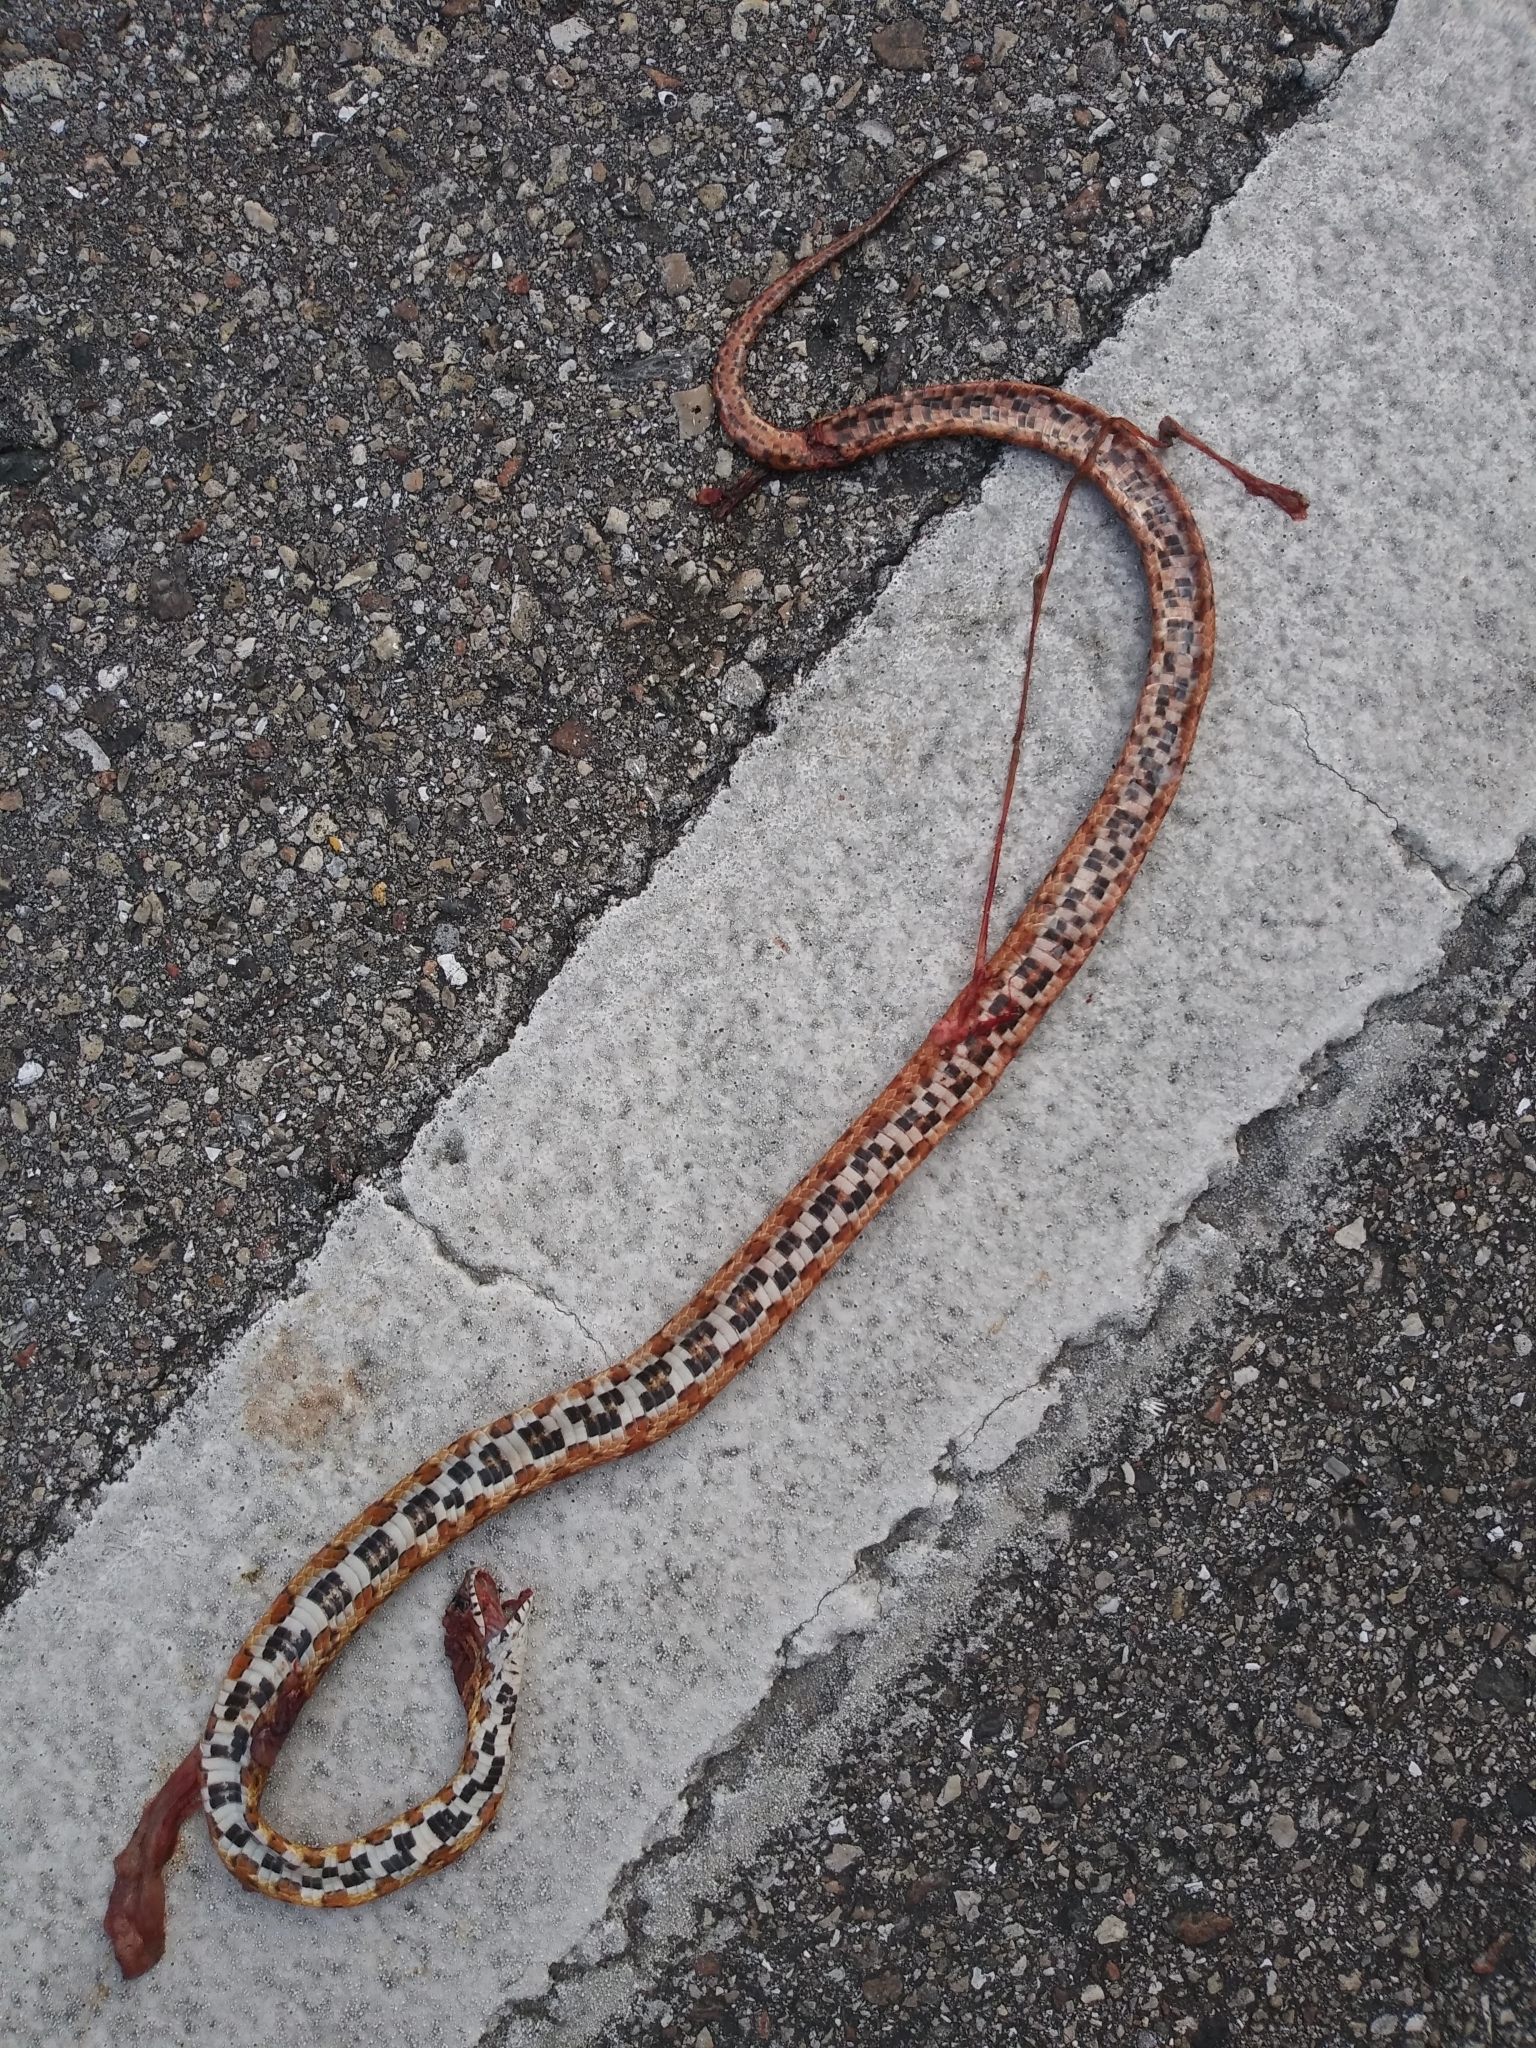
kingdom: Animalia
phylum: Chordata
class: Squamata
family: Colubridae
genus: Pantherophis
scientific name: Pantherophis guttatus
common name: Red cornsnake
